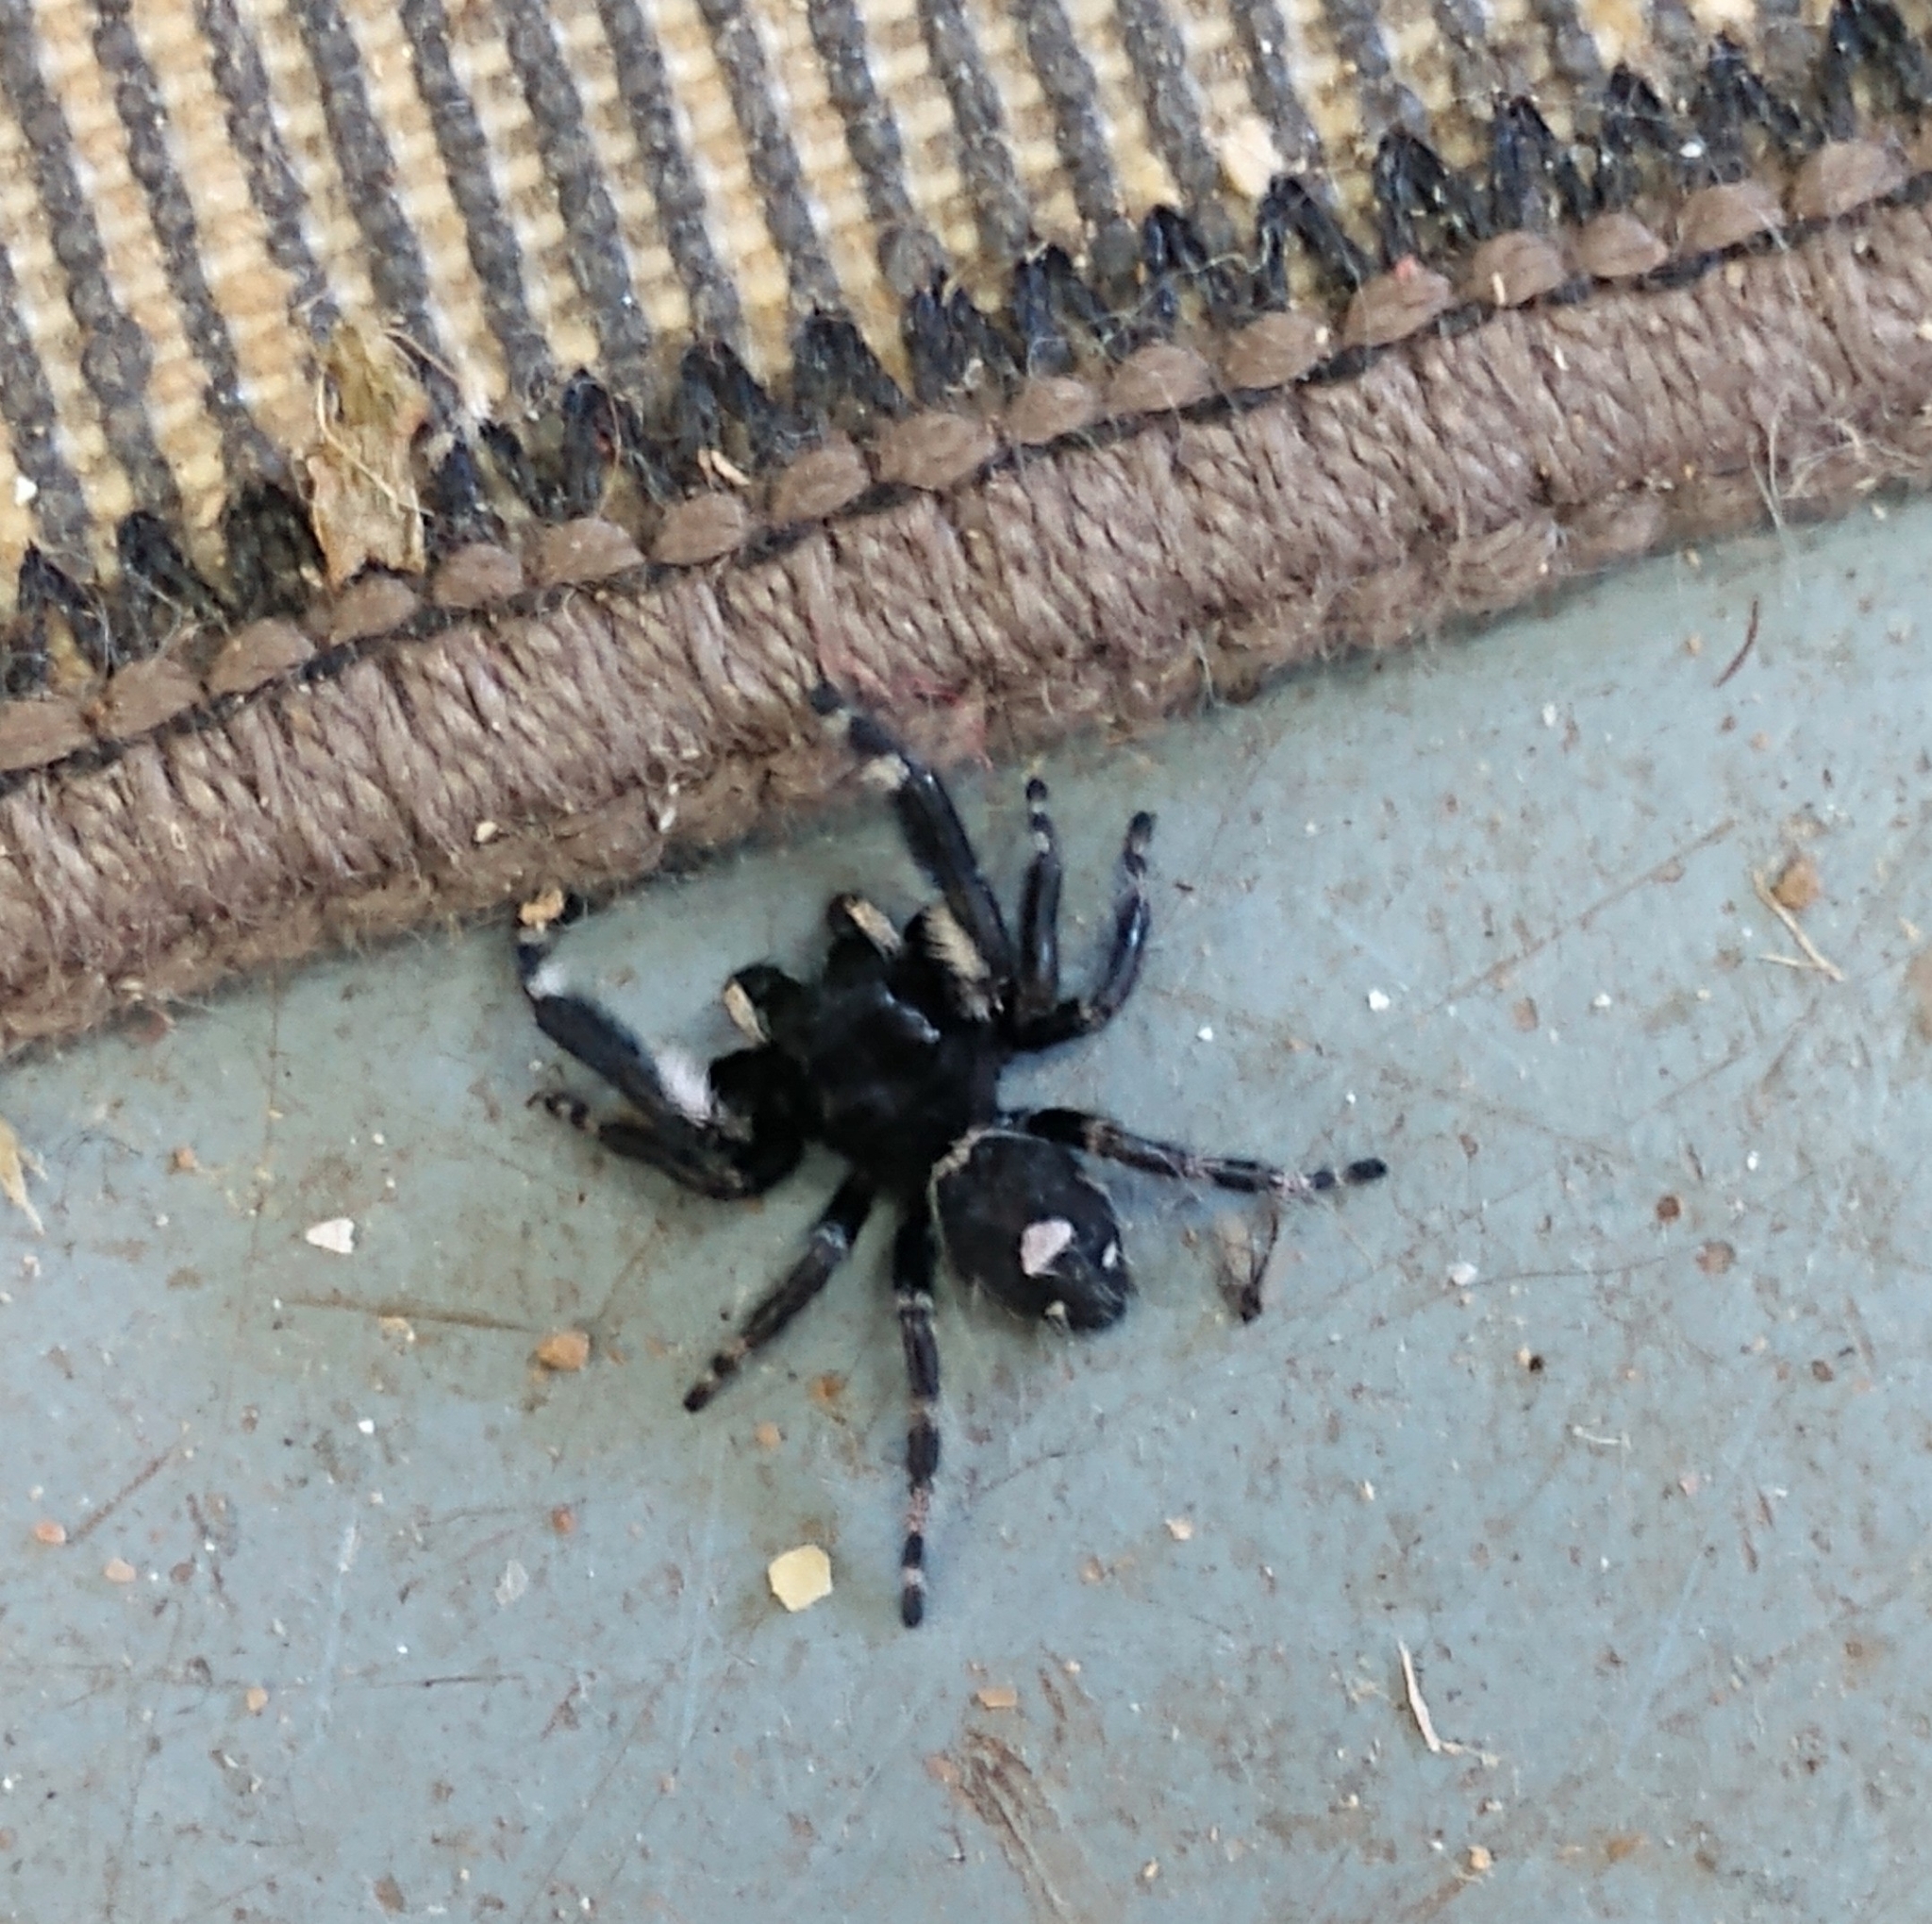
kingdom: Animalia
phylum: Arthropoda
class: Arachnida
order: Araneae
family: Salticidae
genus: Phidippus
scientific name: Phidippus audax
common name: Bold jumper
